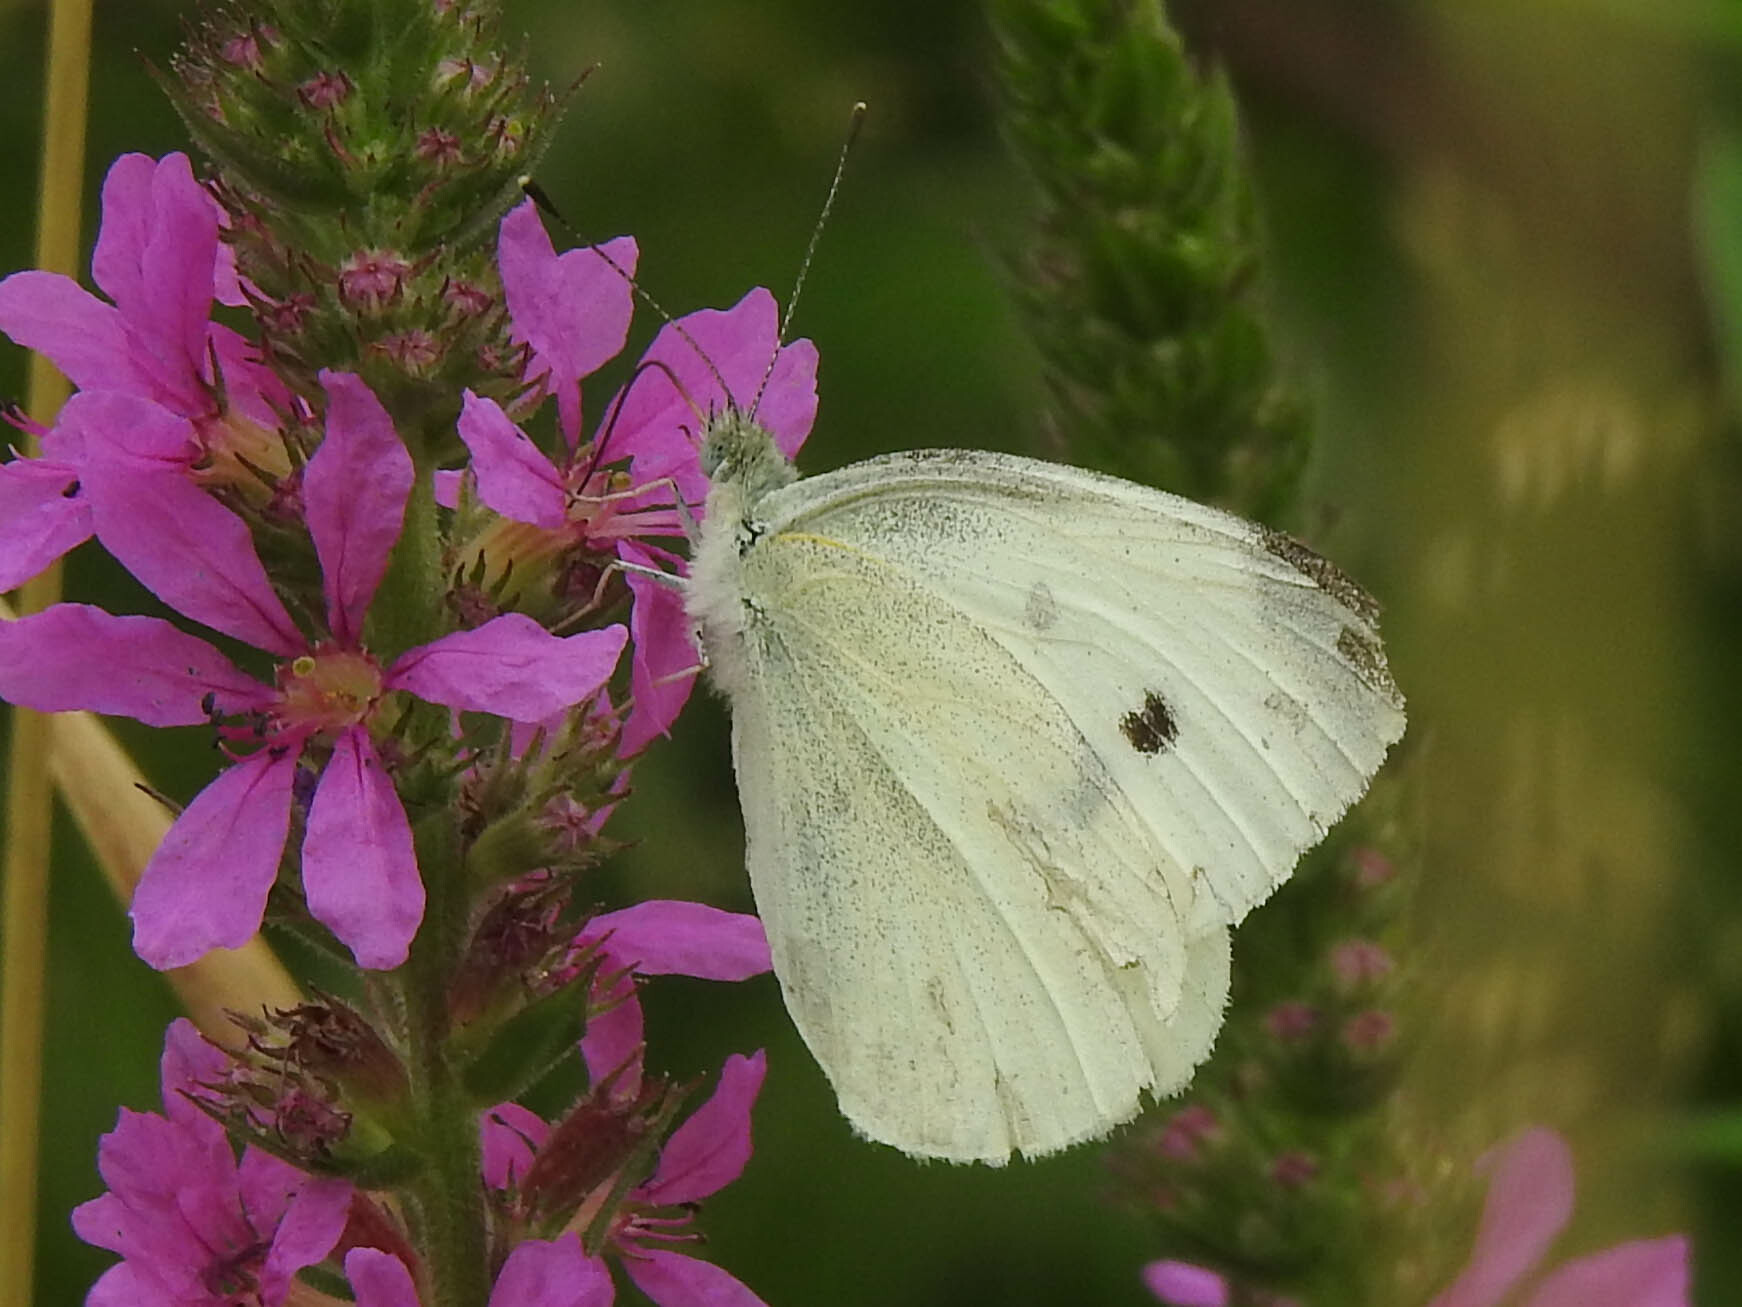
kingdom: Animalia
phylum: Arthropoda
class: Insecta
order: Lepidoptera
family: Pieridae
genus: Pieris
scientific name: Pieris rapae
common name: Small white
